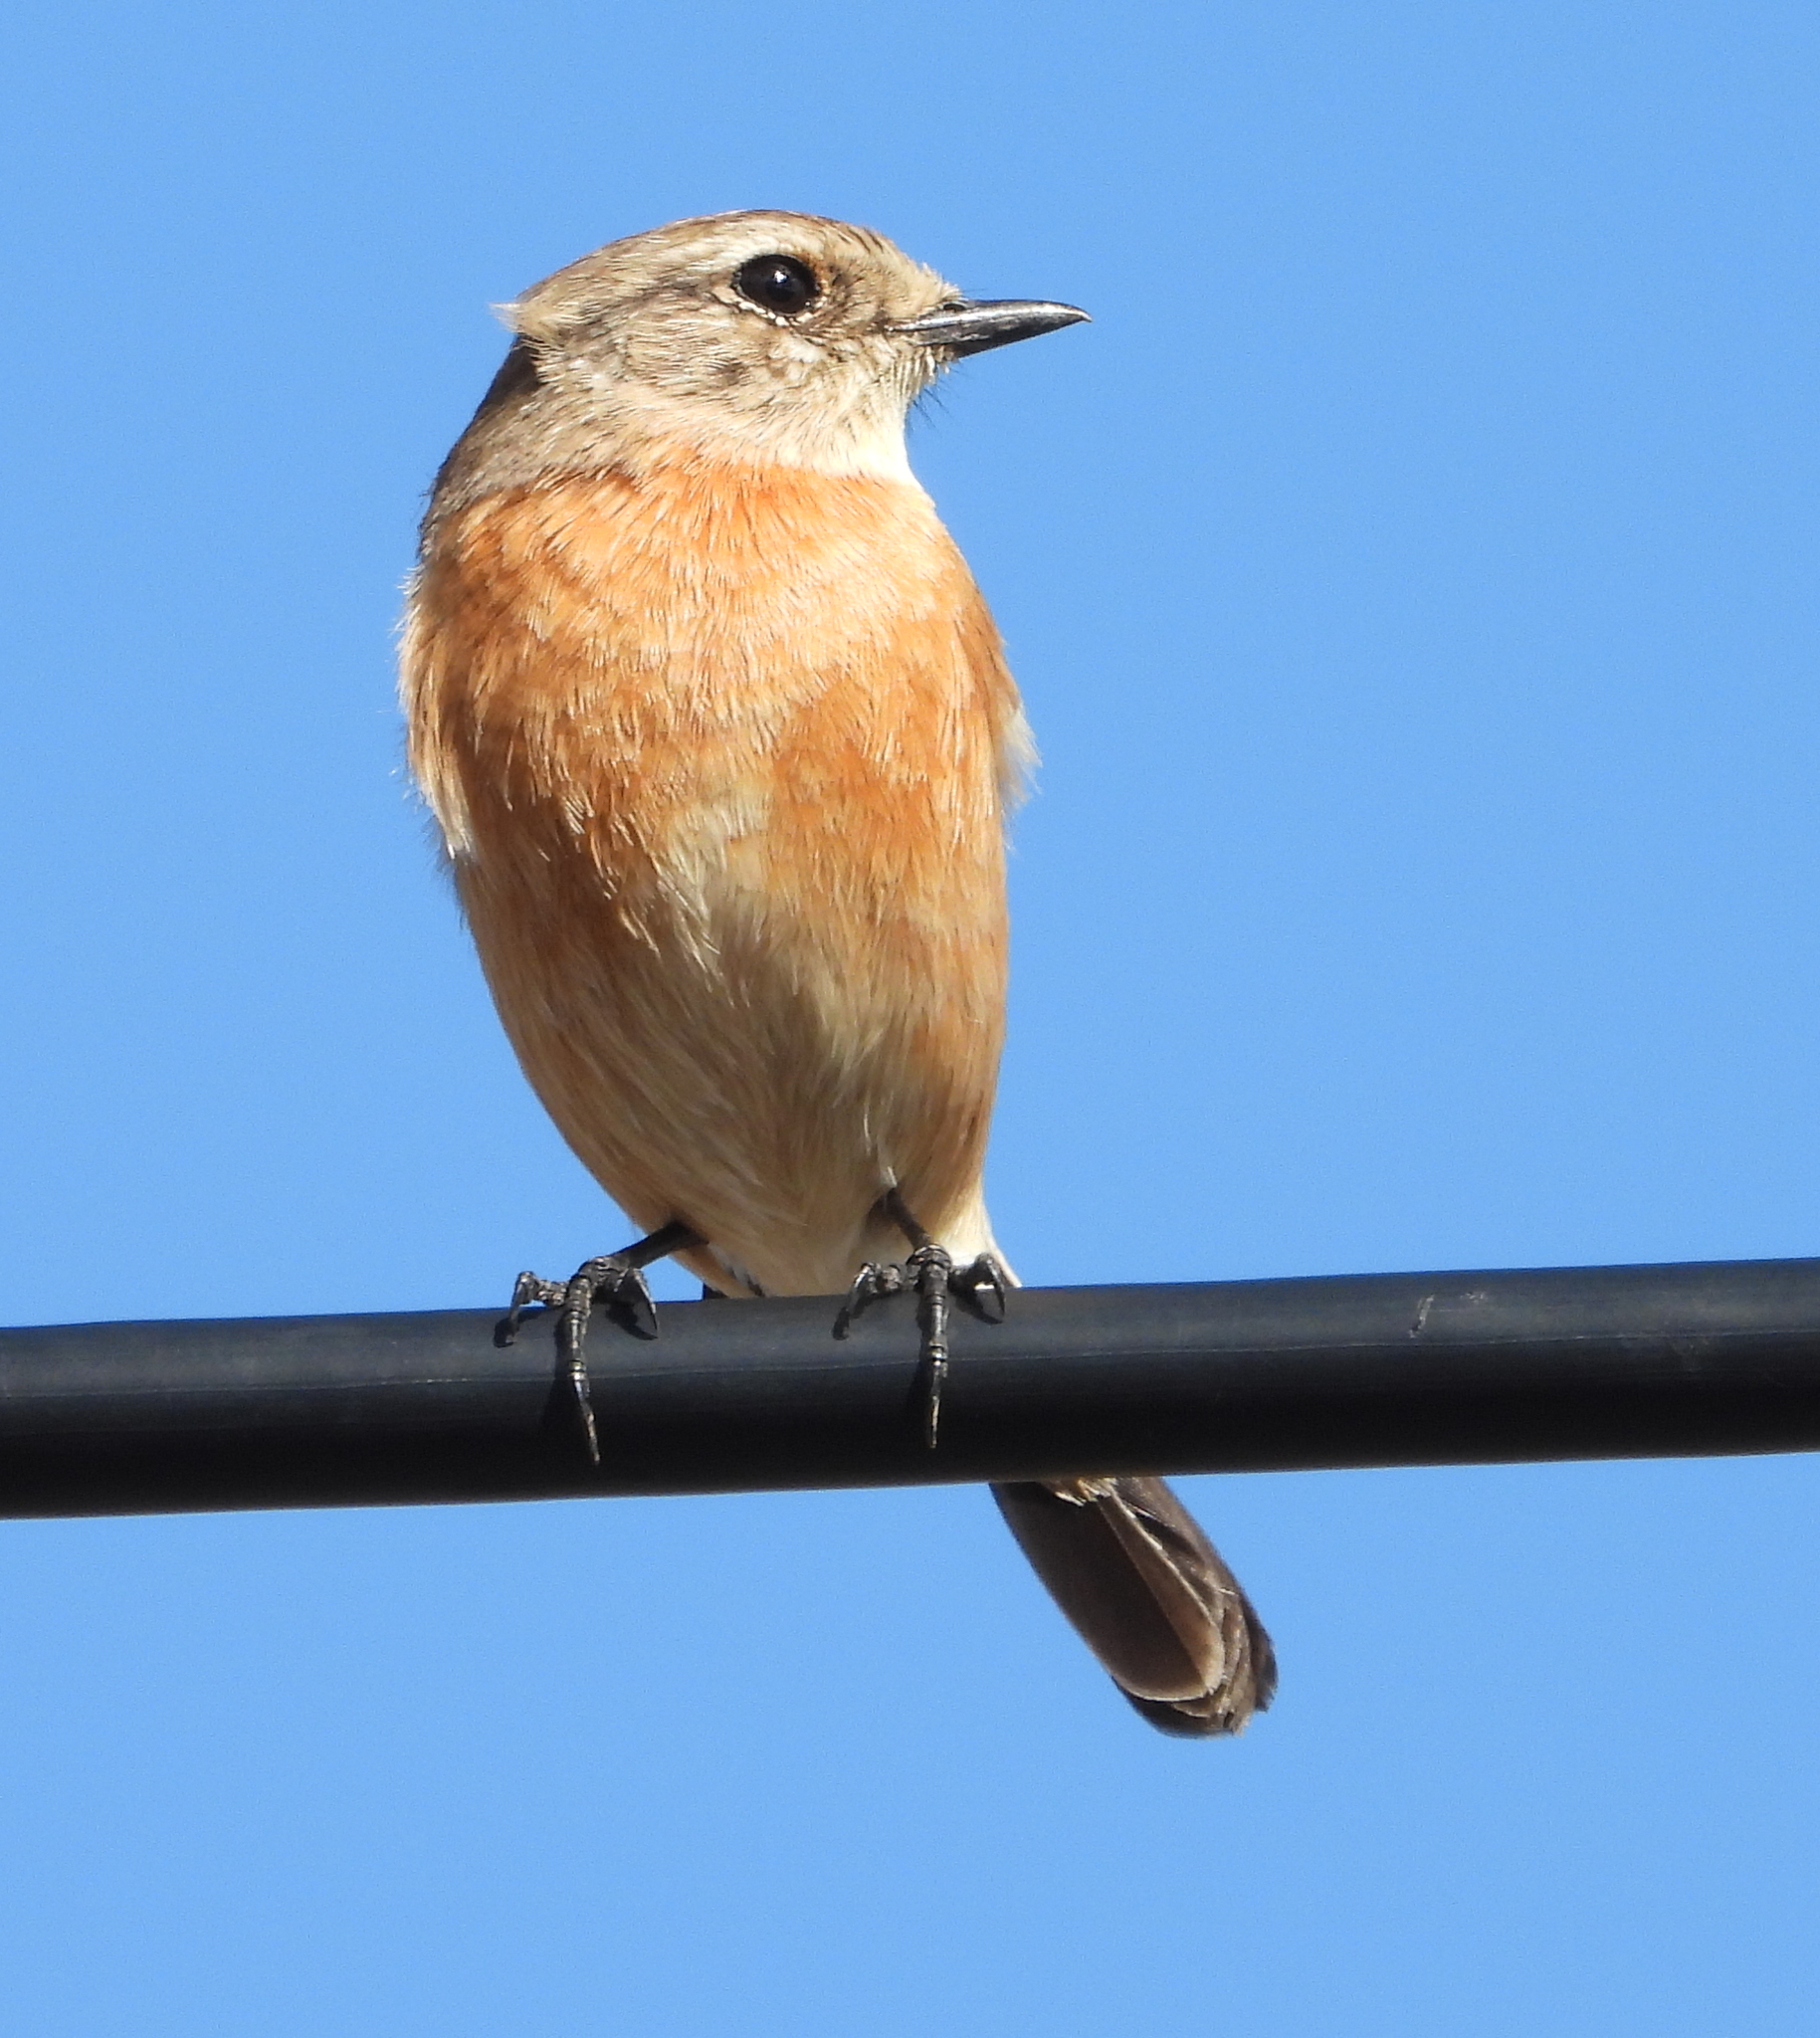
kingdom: Animalia
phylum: Chordata
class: Aves
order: Passeriformes
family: Muscicapidae
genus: Saxicola
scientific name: Saxicola torquatus
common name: African stonechat
